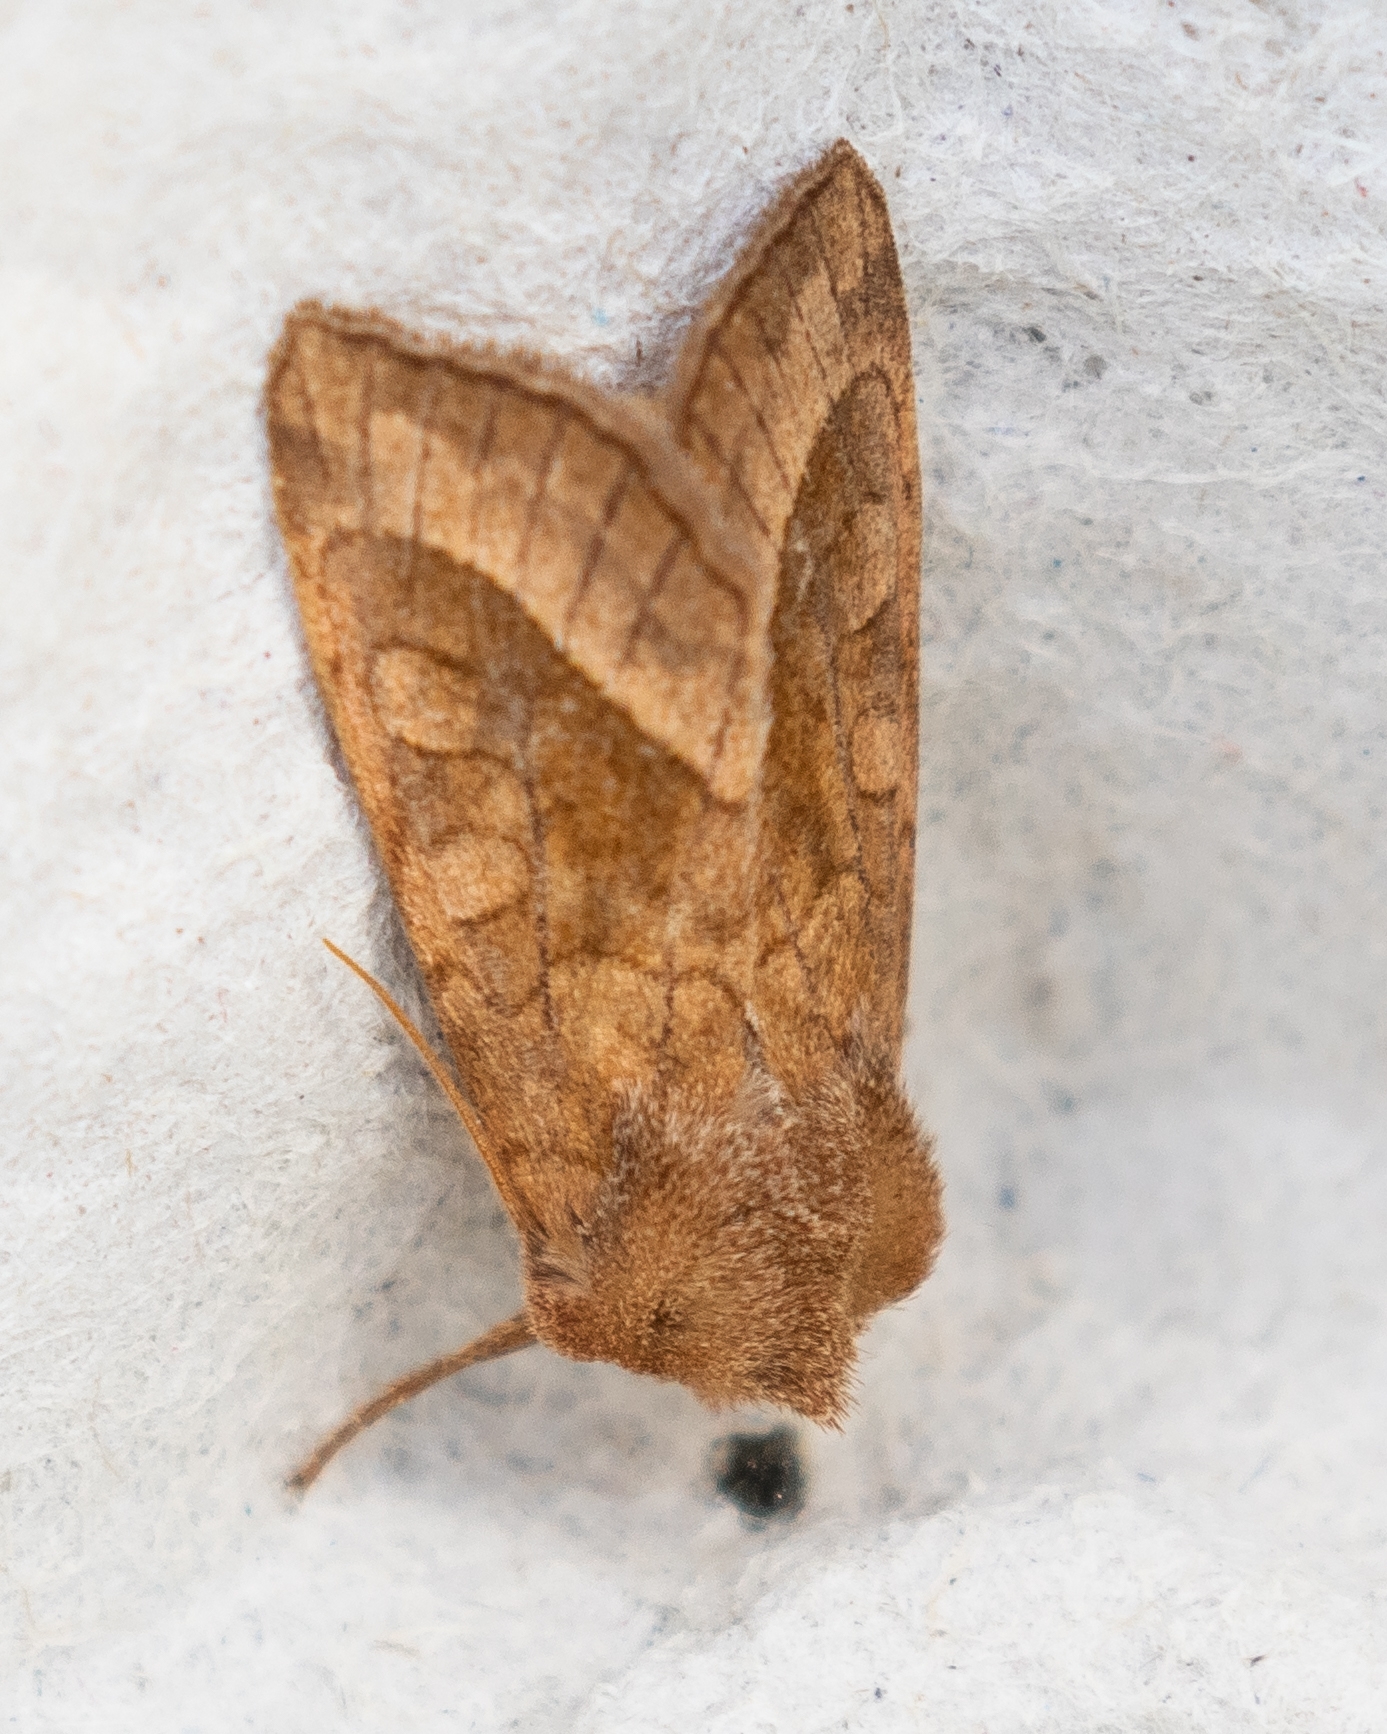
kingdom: Animalia
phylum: Arthropoda
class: Insecta
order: Lepidoptera
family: Noctuidae
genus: Hydraecia
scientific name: Hydraecia micacea
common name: Rosy rustic
